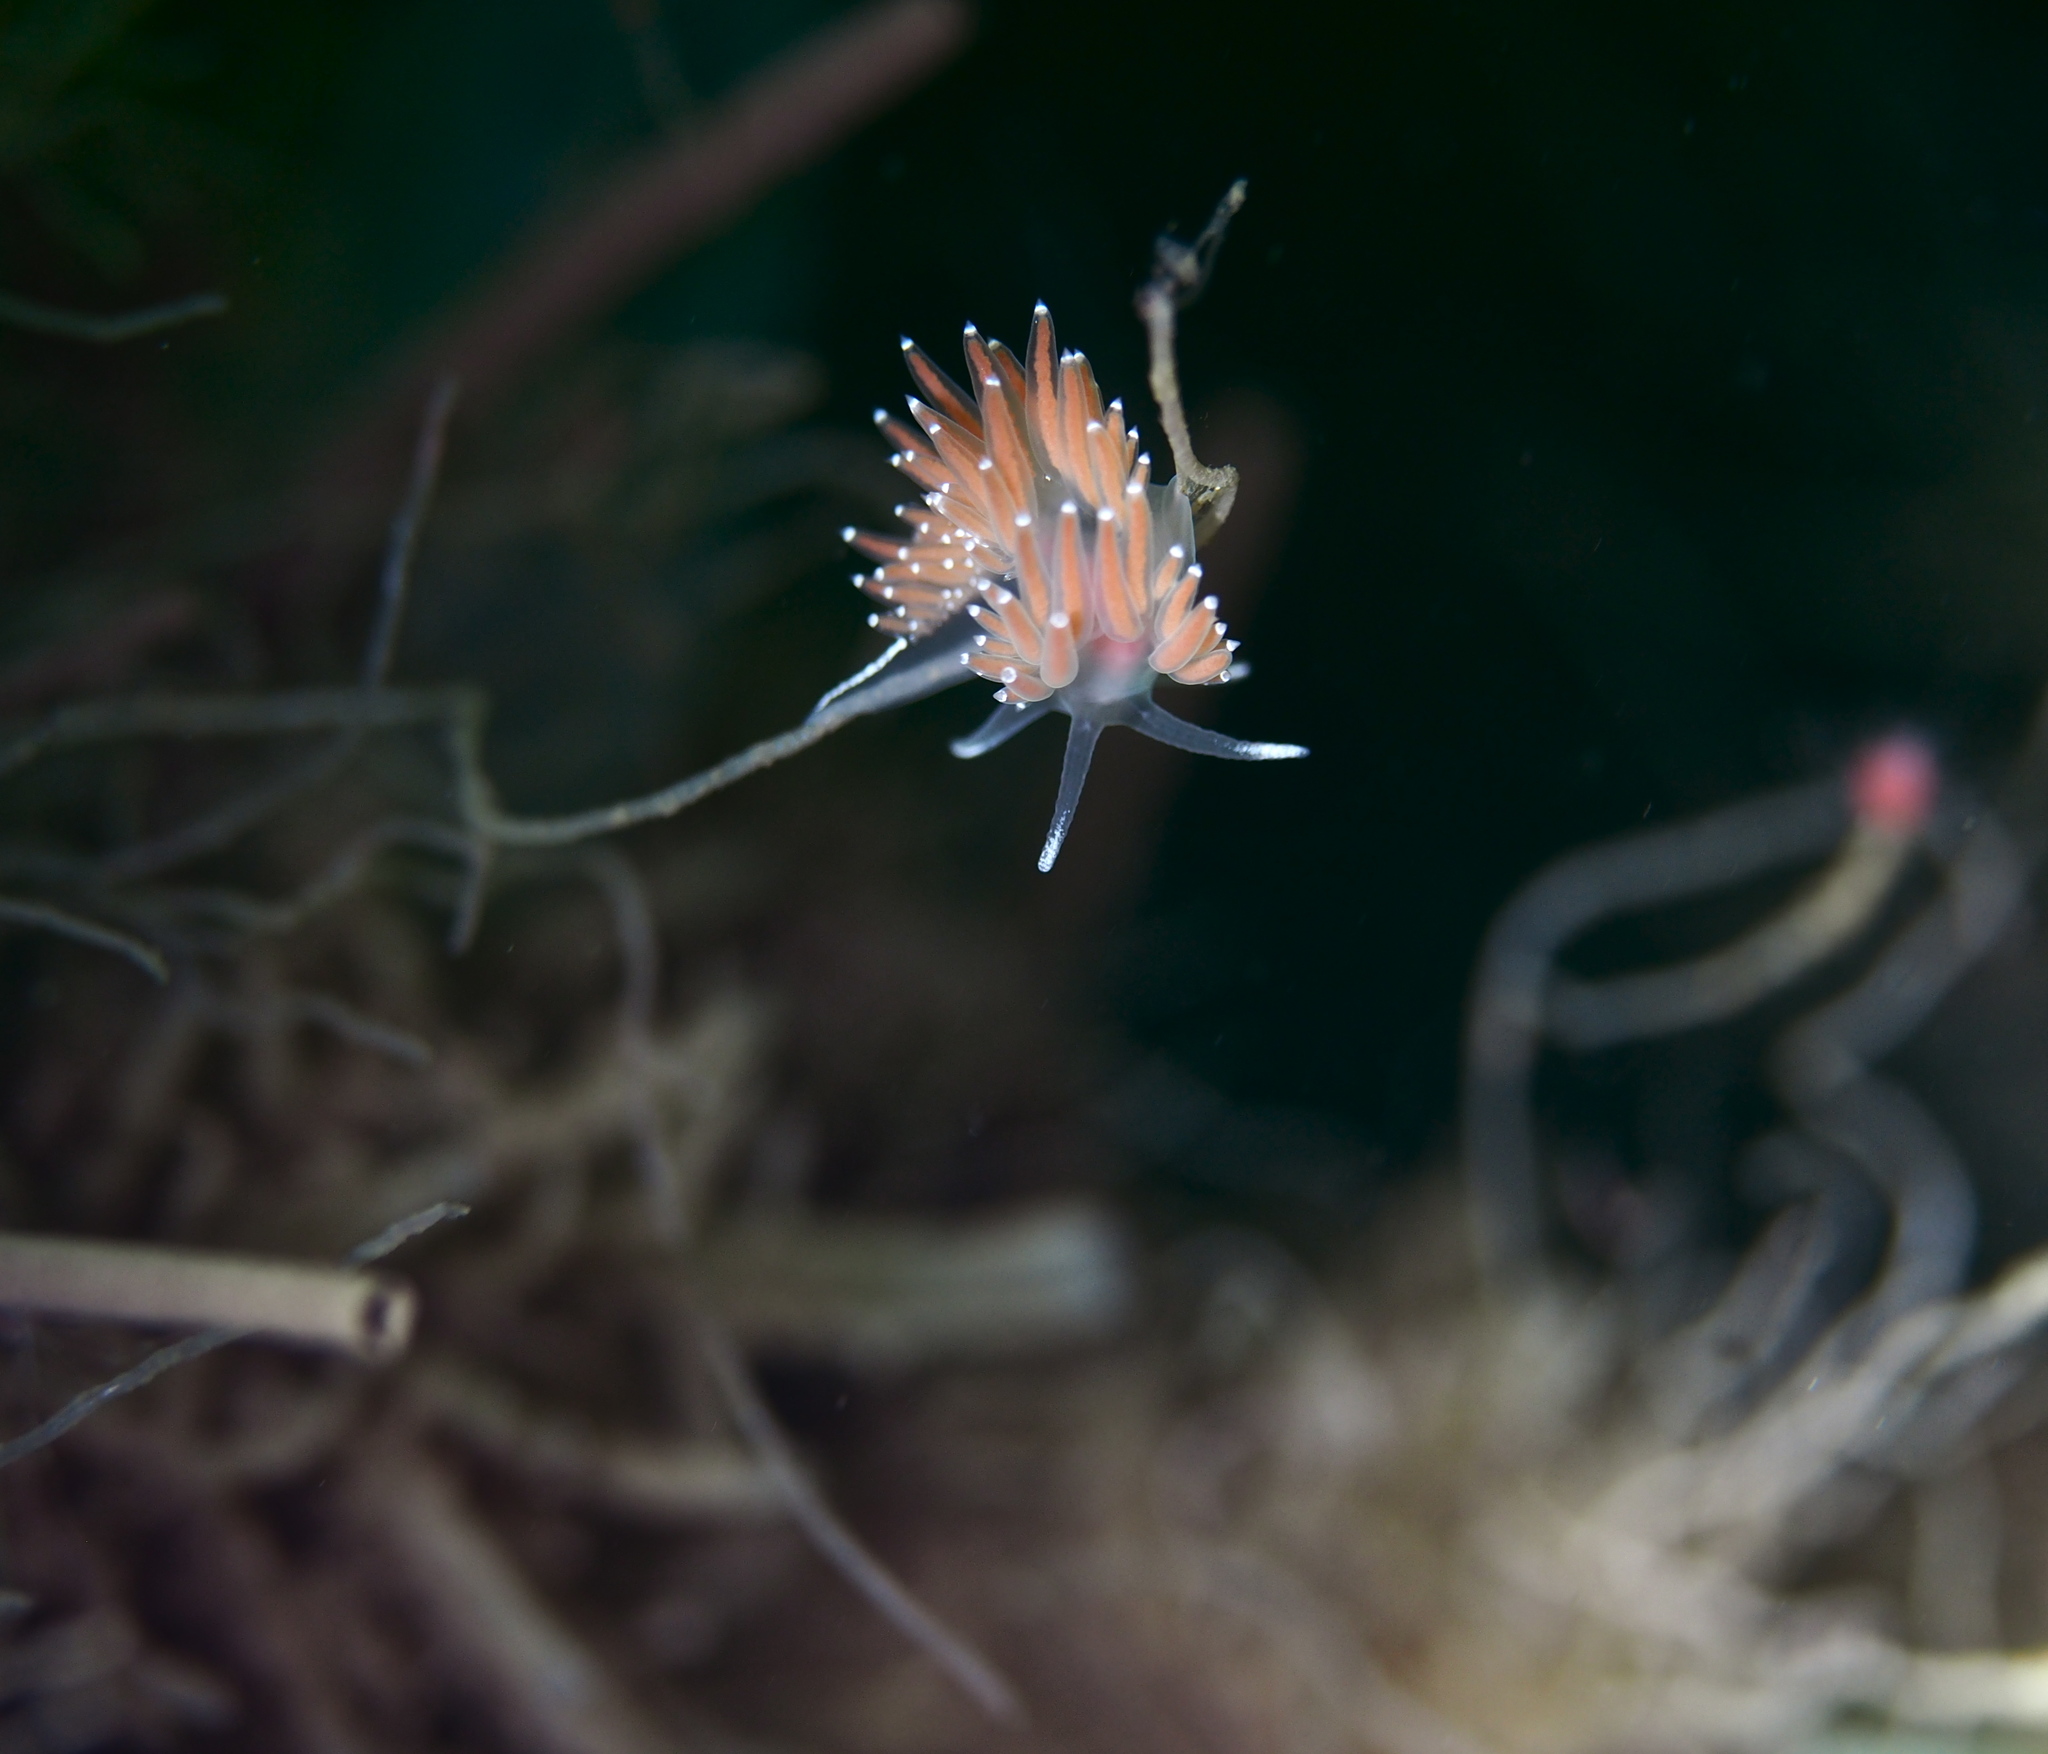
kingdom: Animalia
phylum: Mollusca
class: Gastropoda
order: Nudibranchia
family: Coryphellidae
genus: Coryphella
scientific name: Coryphella verrucosa
